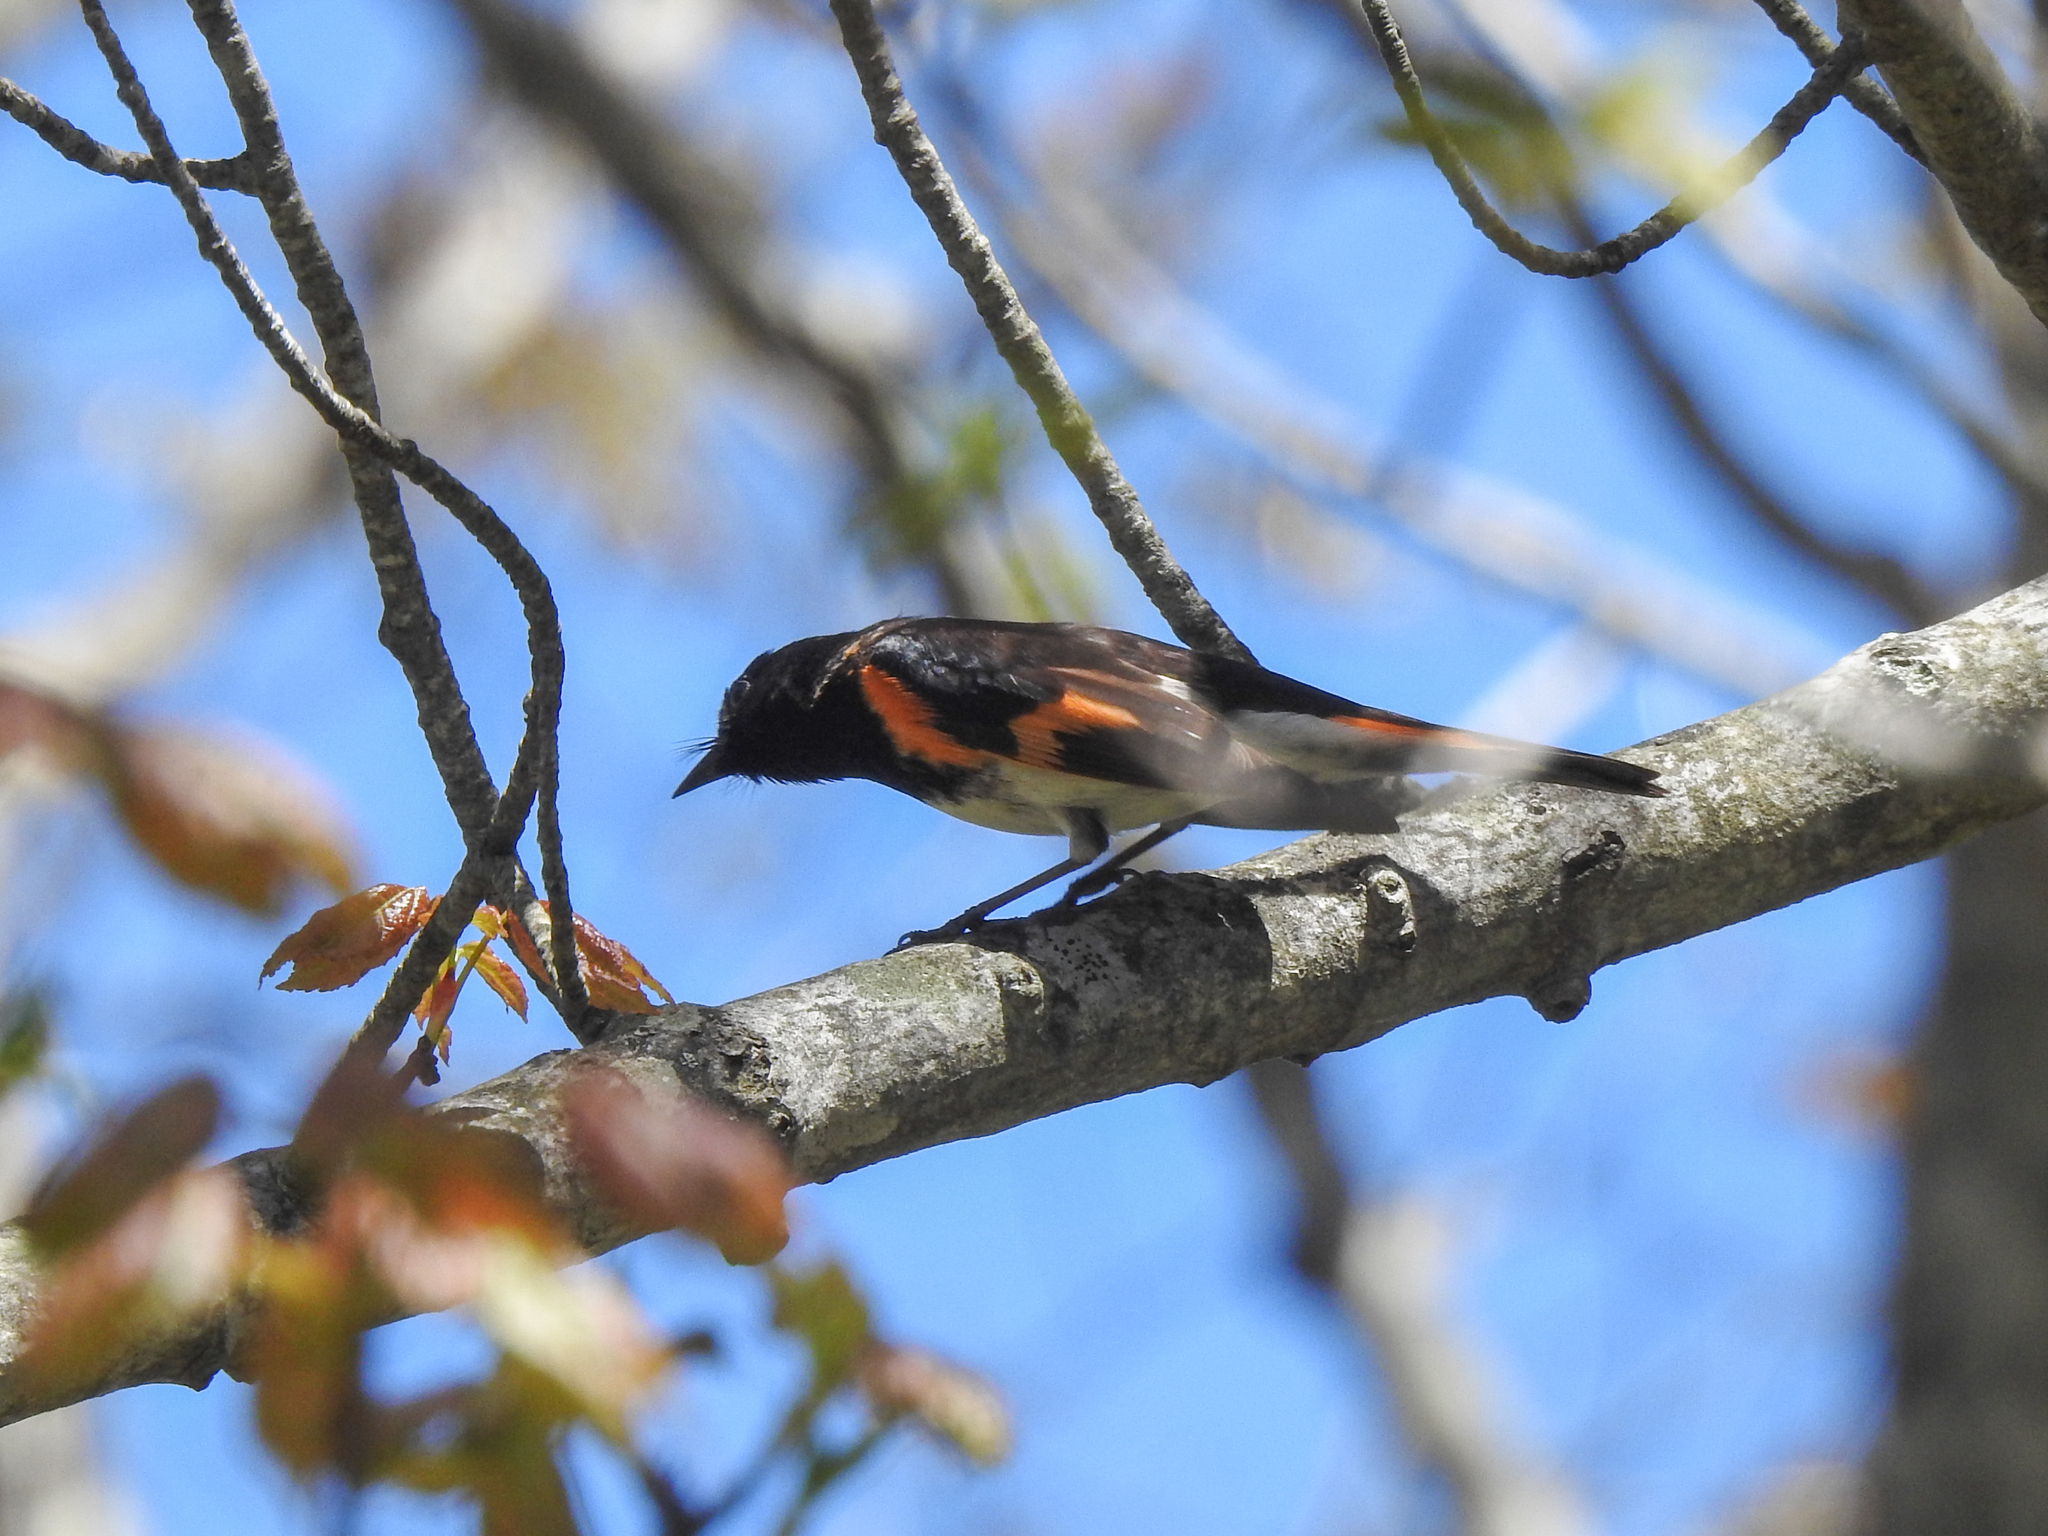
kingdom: Animalia
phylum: Chordata
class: Aves
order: Passeriformes
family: Parulidae
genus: Setophaga
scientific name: Setophaga ruticilla
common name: American redstart
